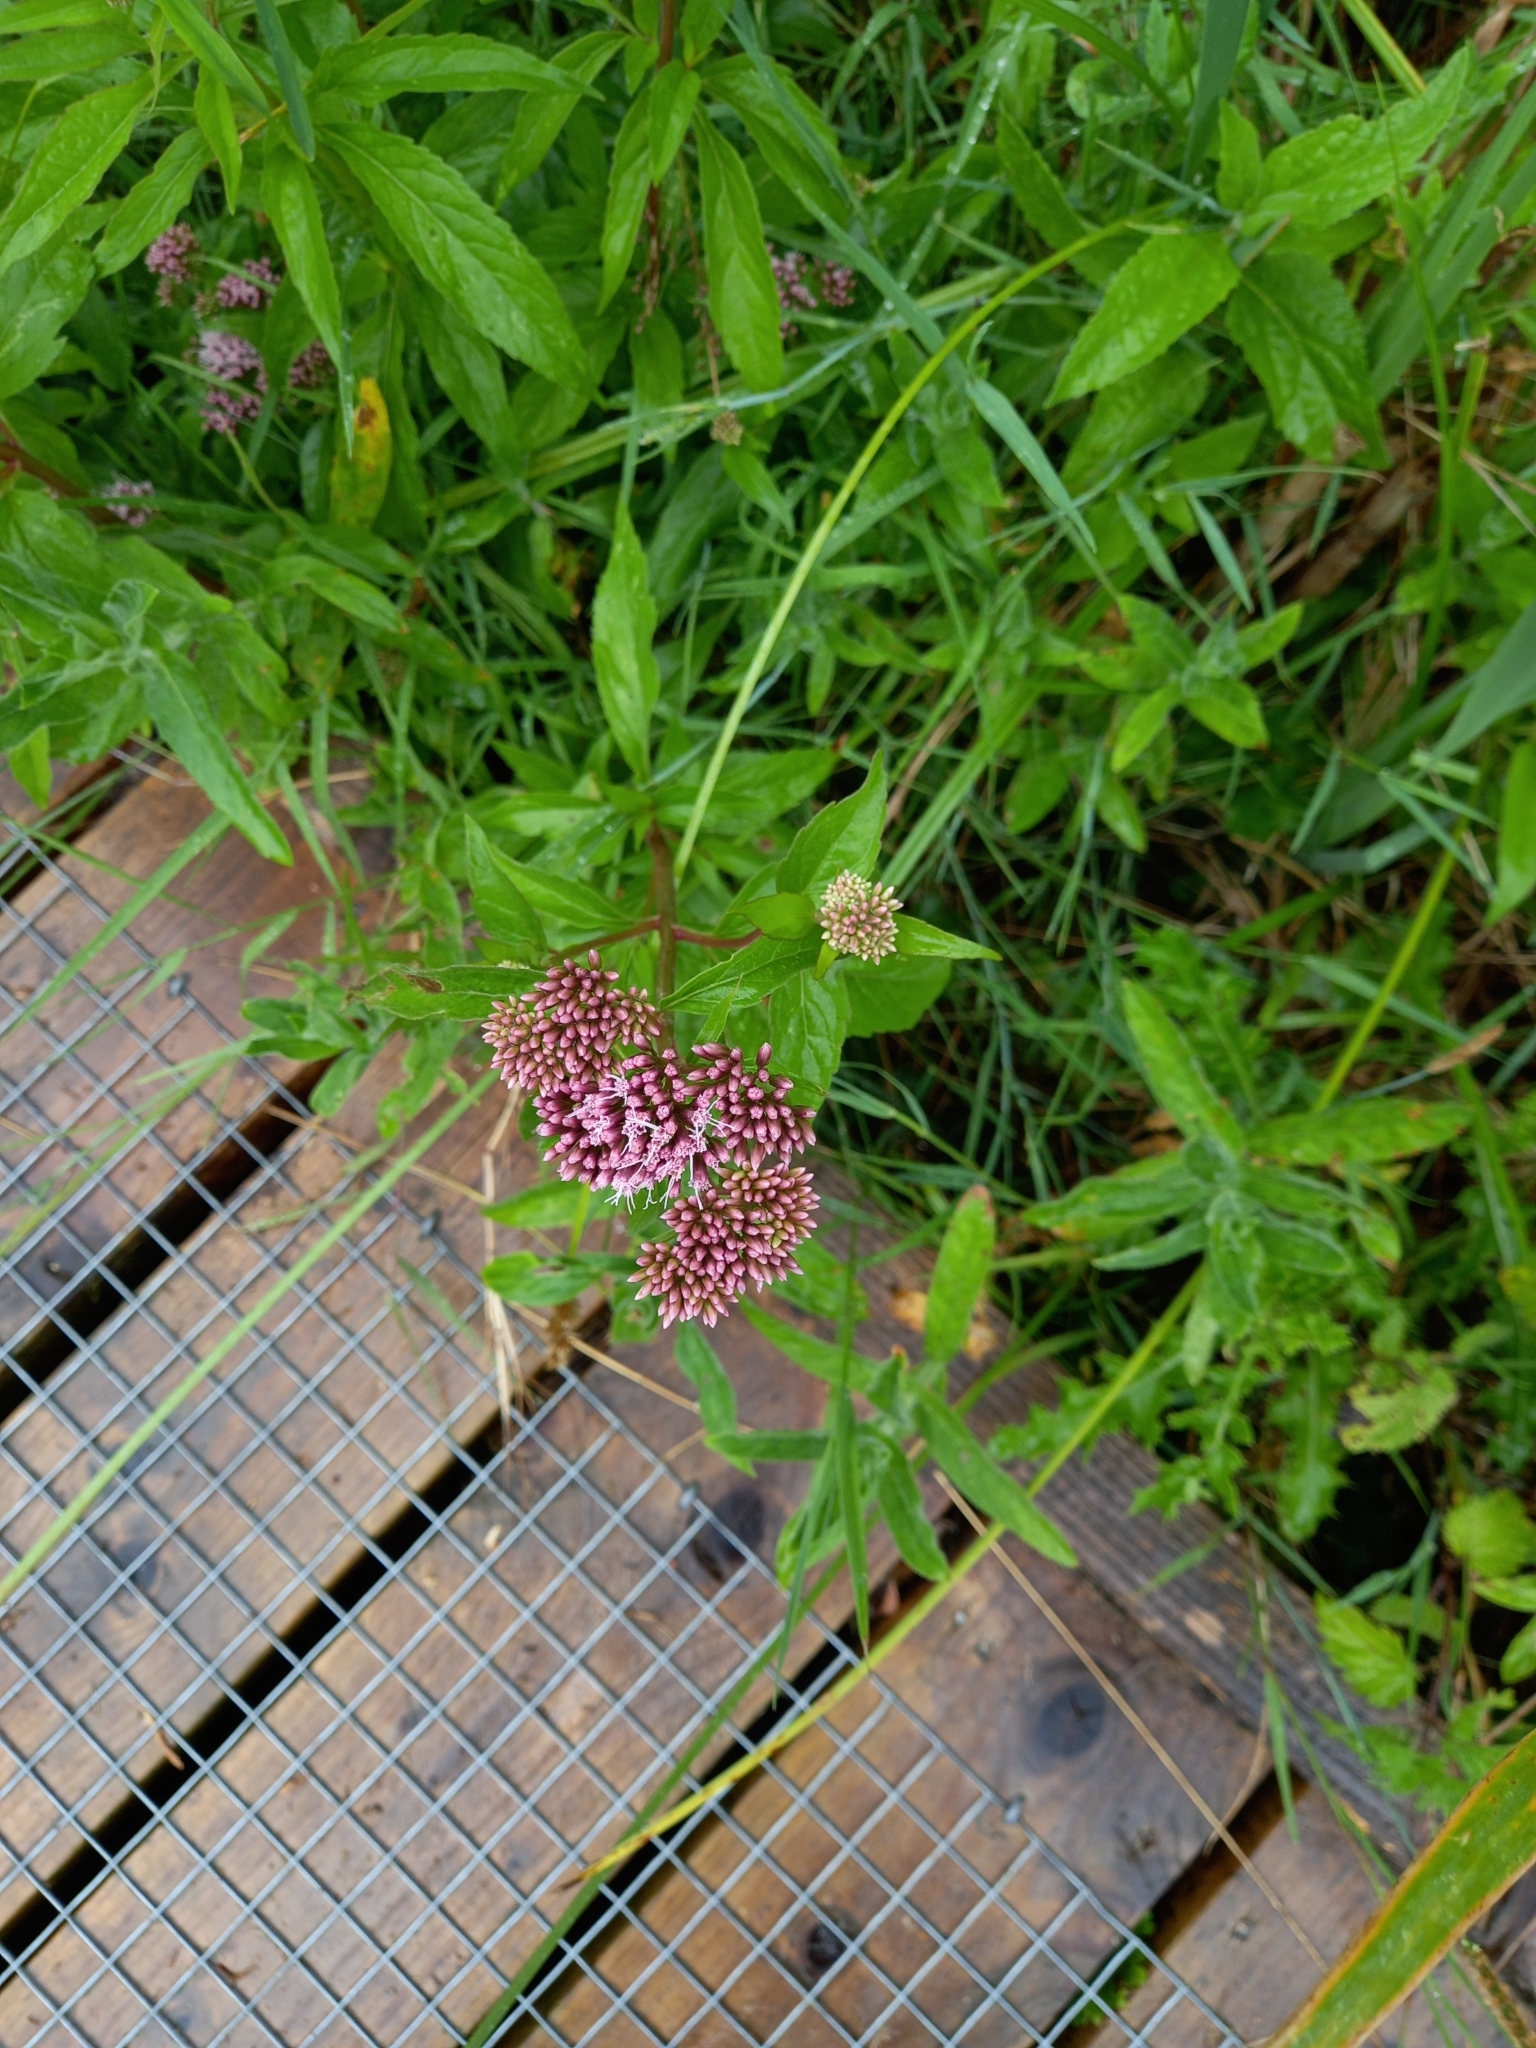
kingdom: Plantae
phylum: Tracheophyta
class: Magnoliopsida
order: Asterales
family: Asteraceae
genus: Eupatorium
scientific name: Eupatorium cannabinum
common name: Hemp-agrimony
